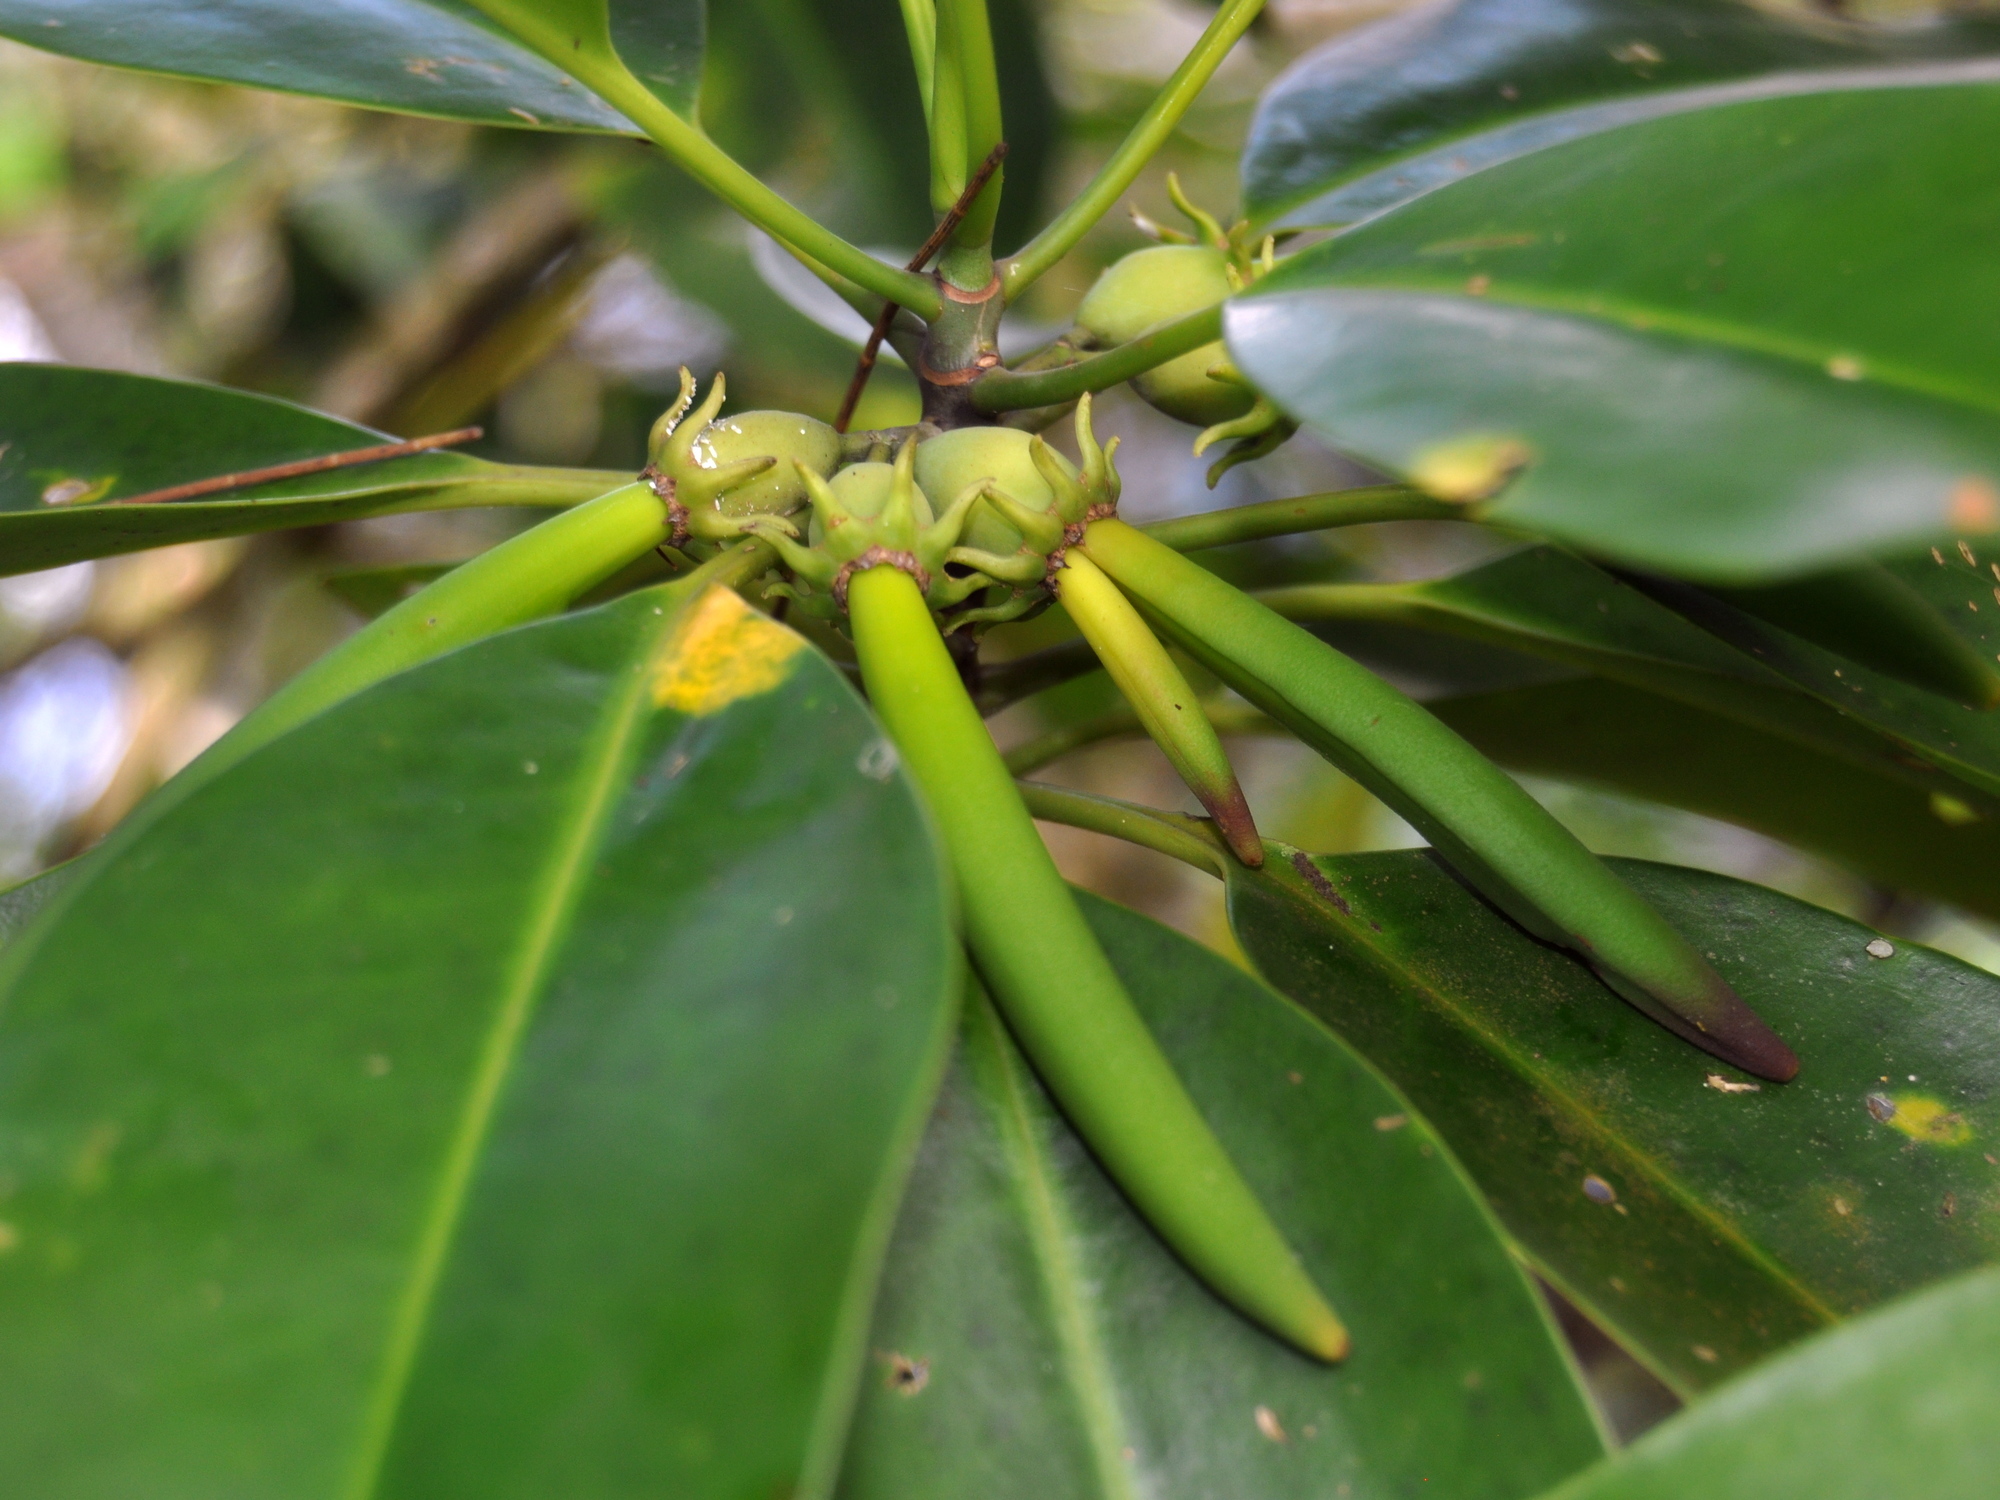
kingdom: Plantae
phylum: Tracheophyta
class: Magnoliopsida
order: Malpighiales
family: Rhizophoraceae
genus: Bruguiera
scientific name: Bruguiera cylindrica
